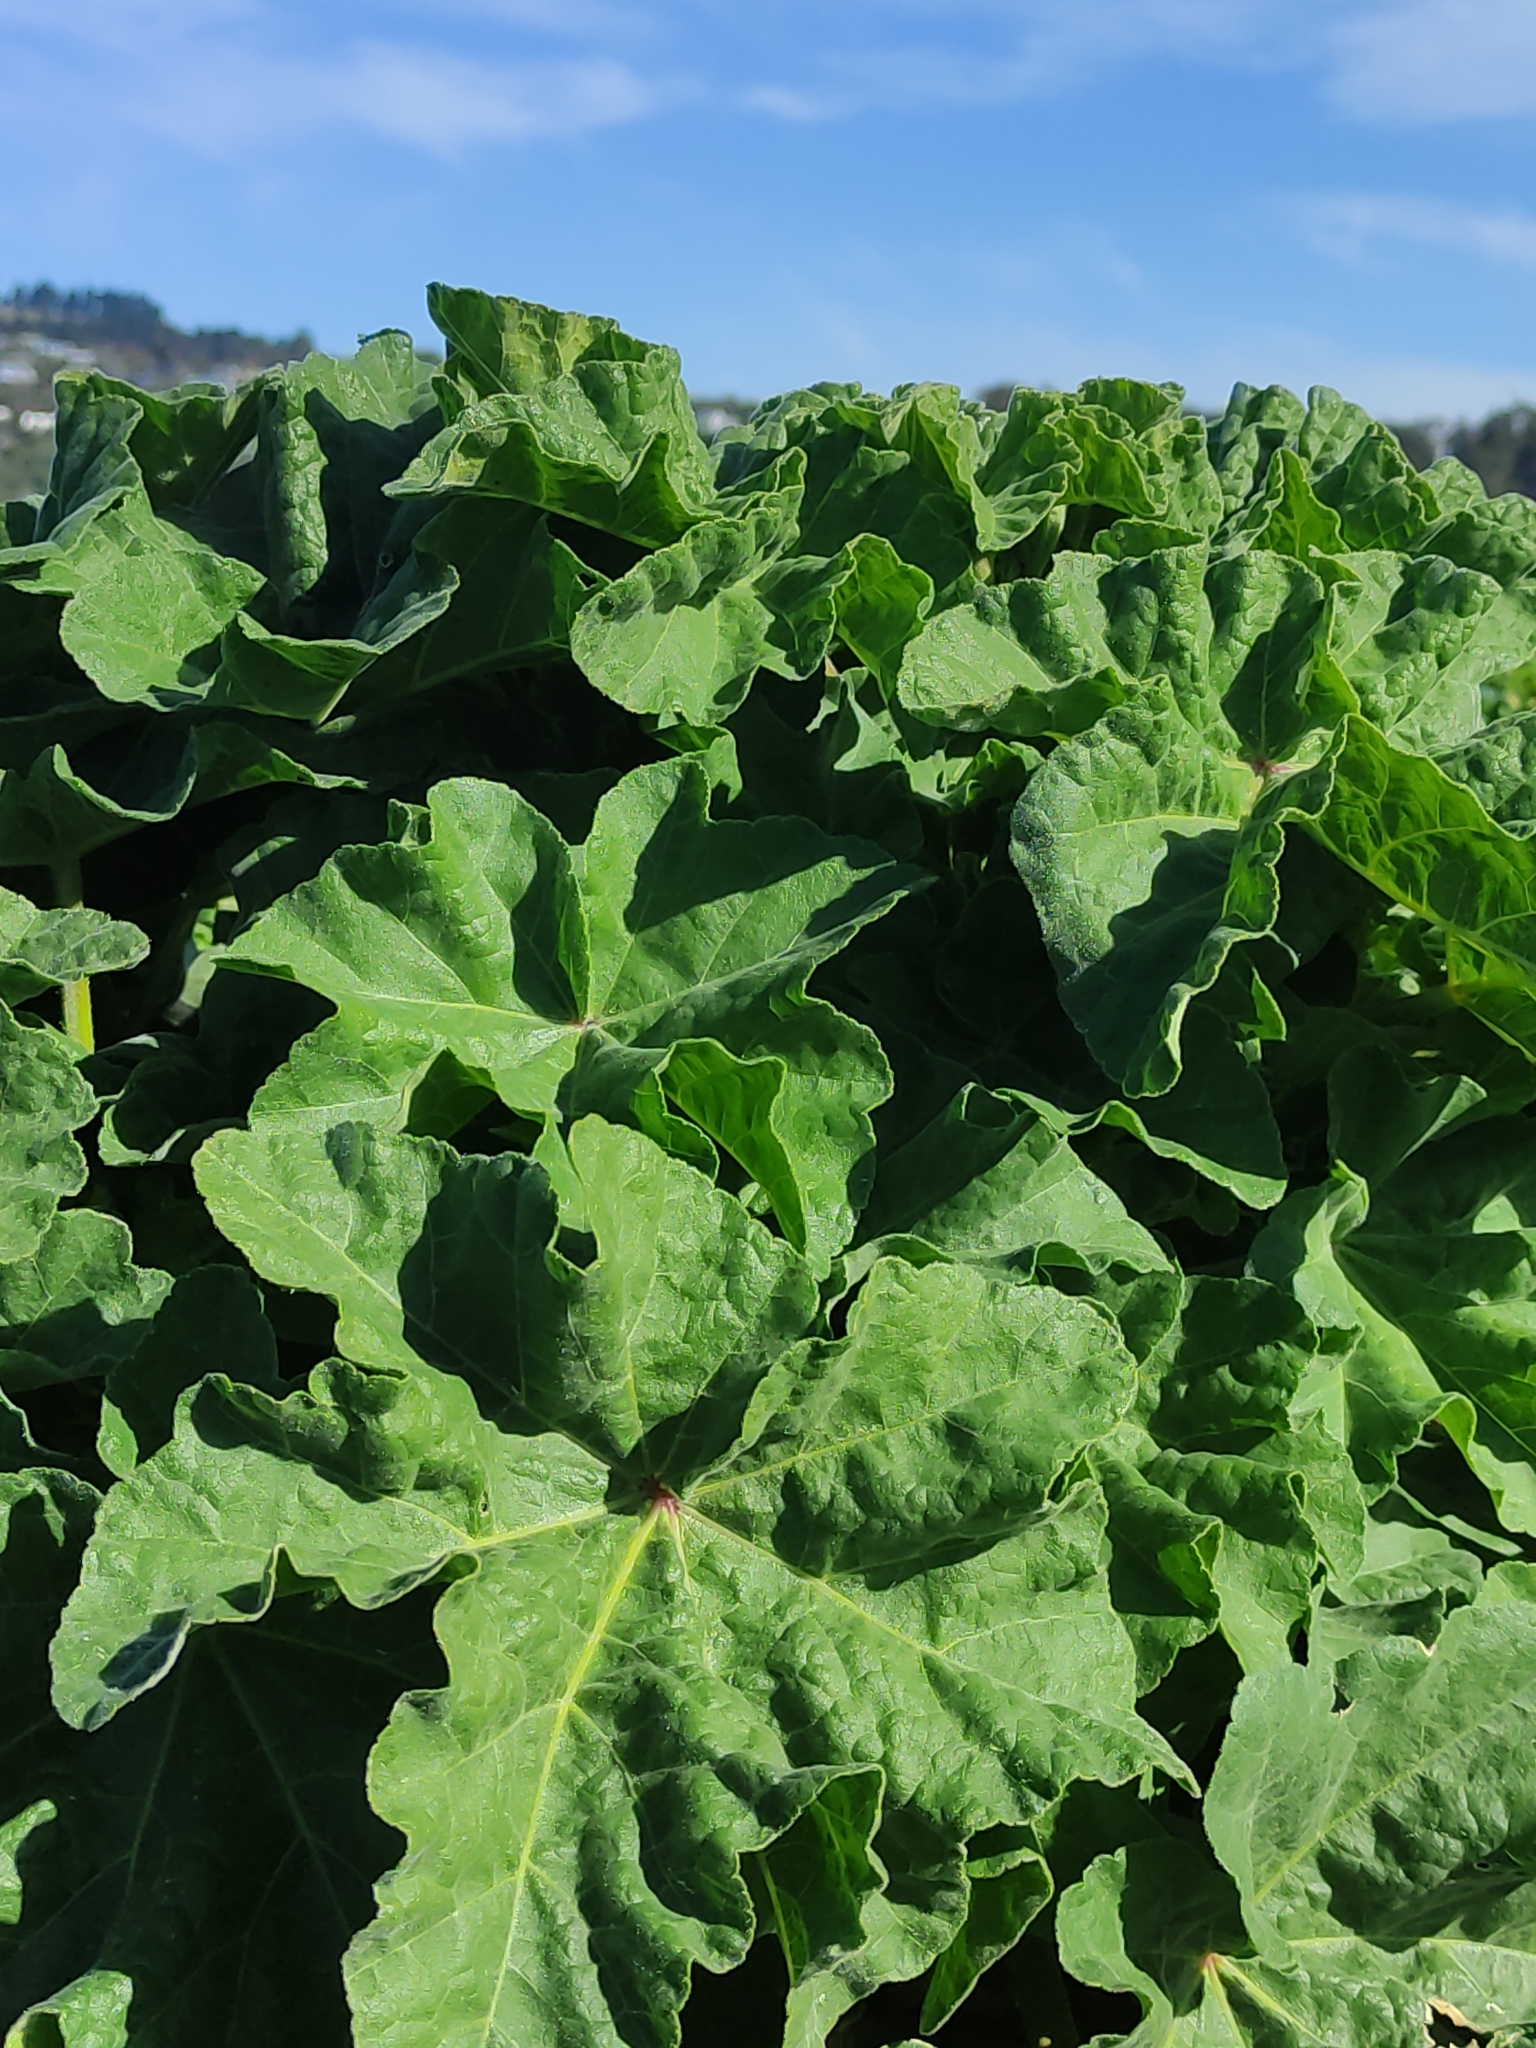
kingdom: Plantae
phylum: Tracheophyta
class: Magnoliopsida
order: Malvales
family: Malvaceae
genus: Malva
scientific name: Malva arborea
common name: Tree mallow
